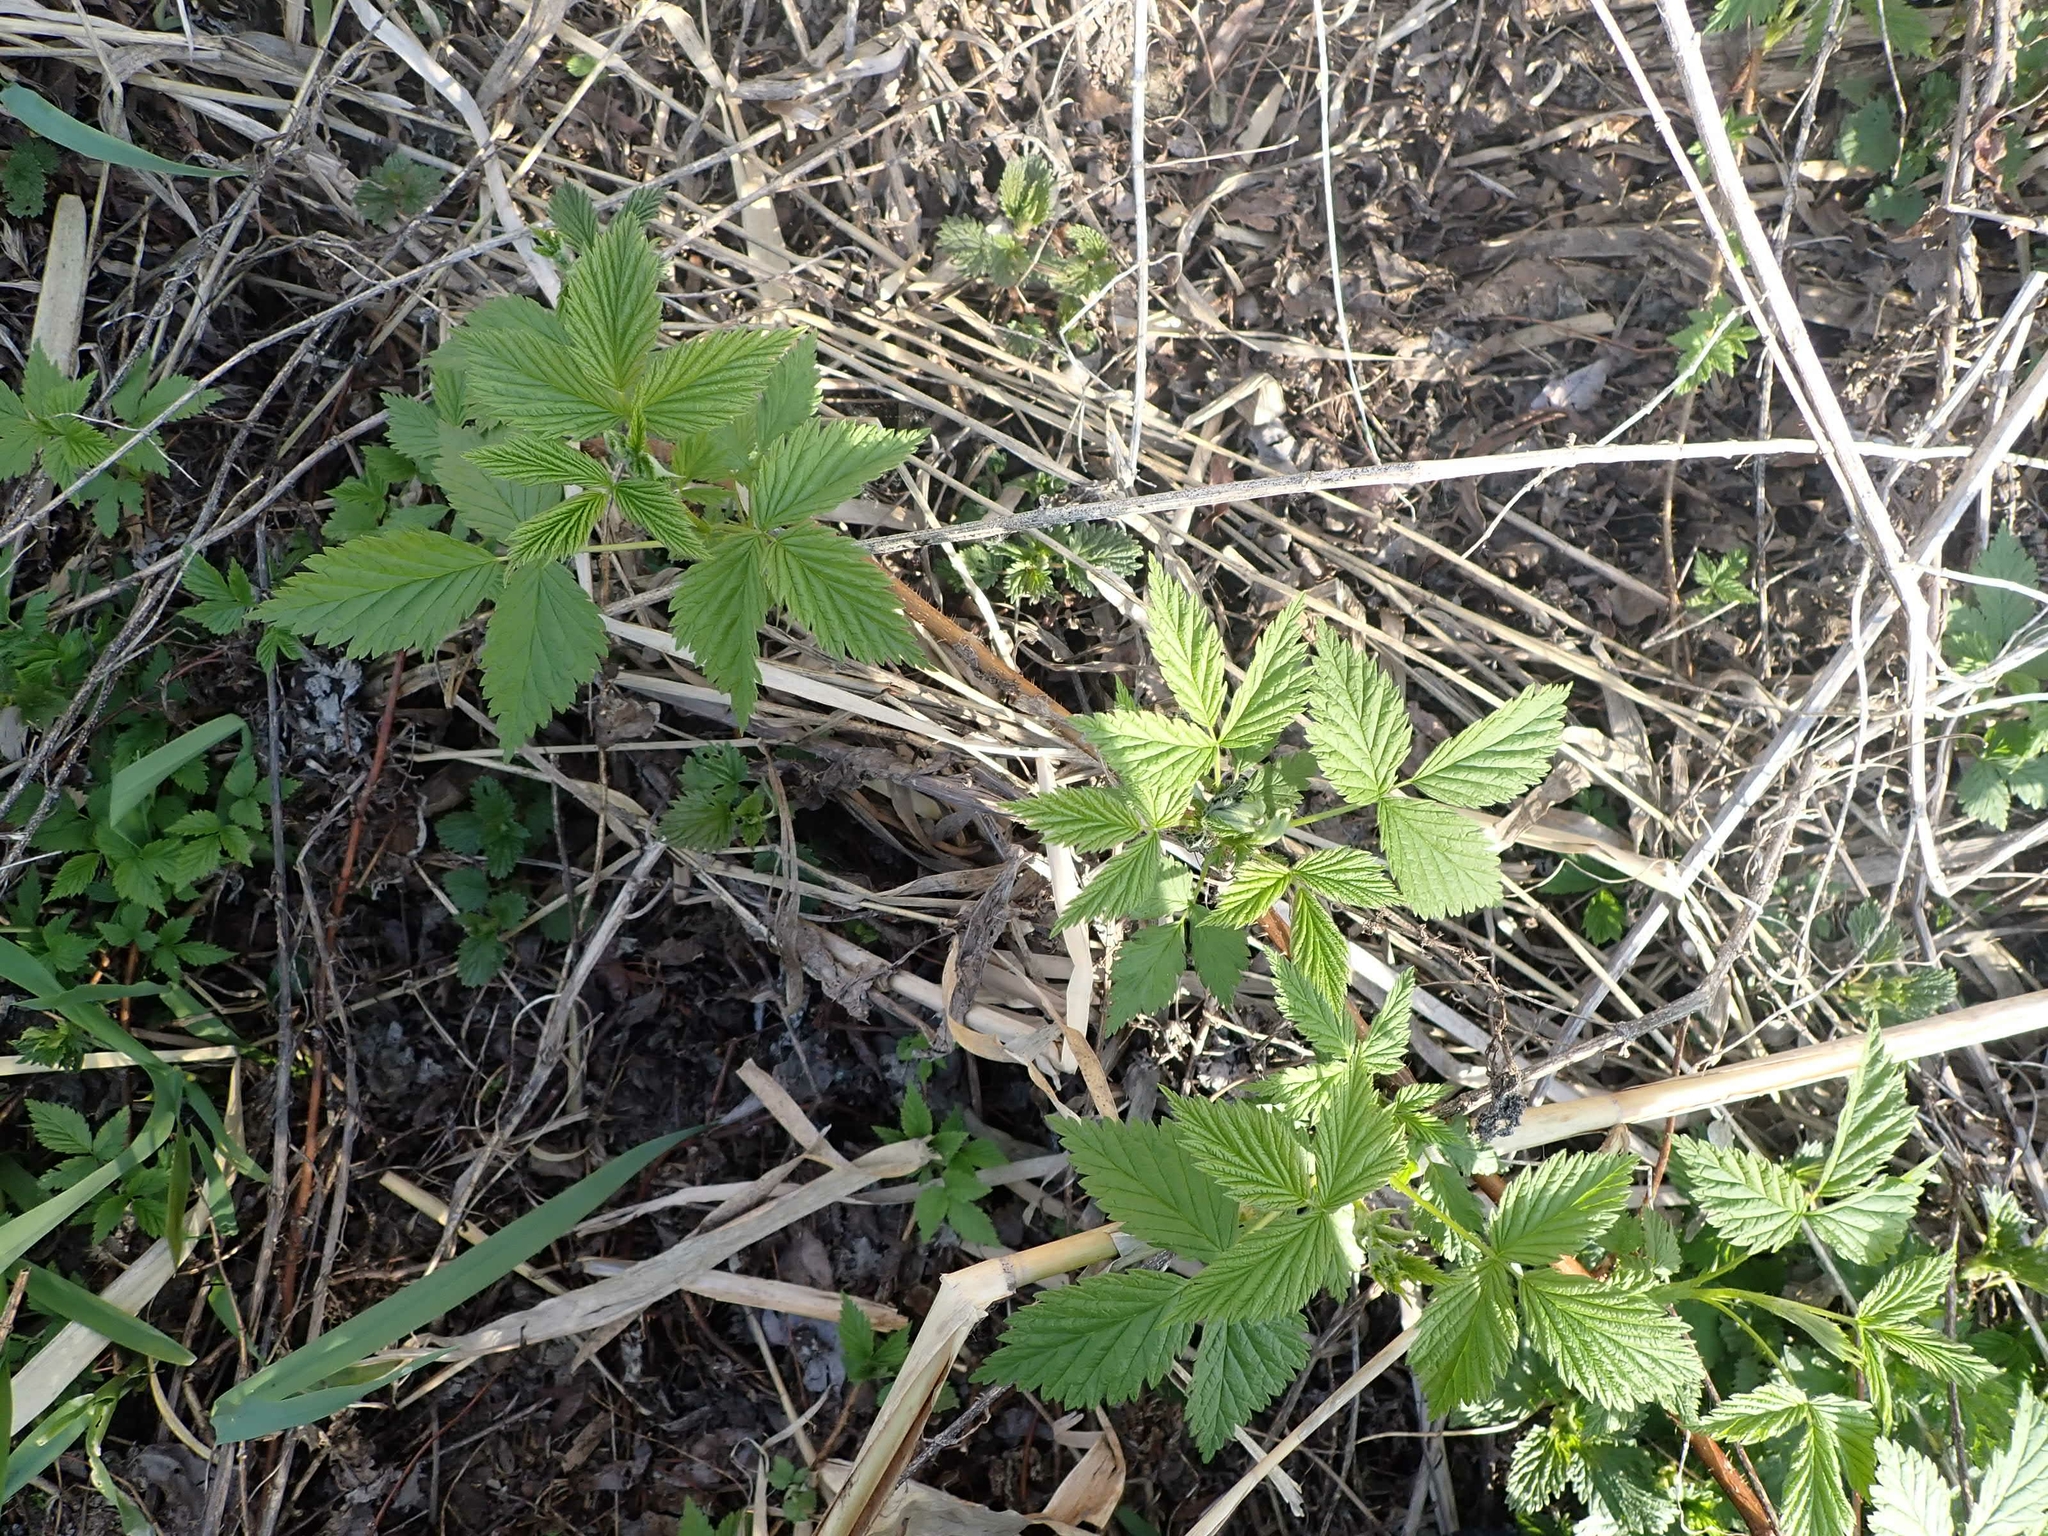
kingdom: Plantae
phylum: Tracheophyta
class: Magnoliopsida
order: Rosales
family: Rosaceae
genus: Rubus
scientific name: Rubus idaeus
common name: Raspberry
